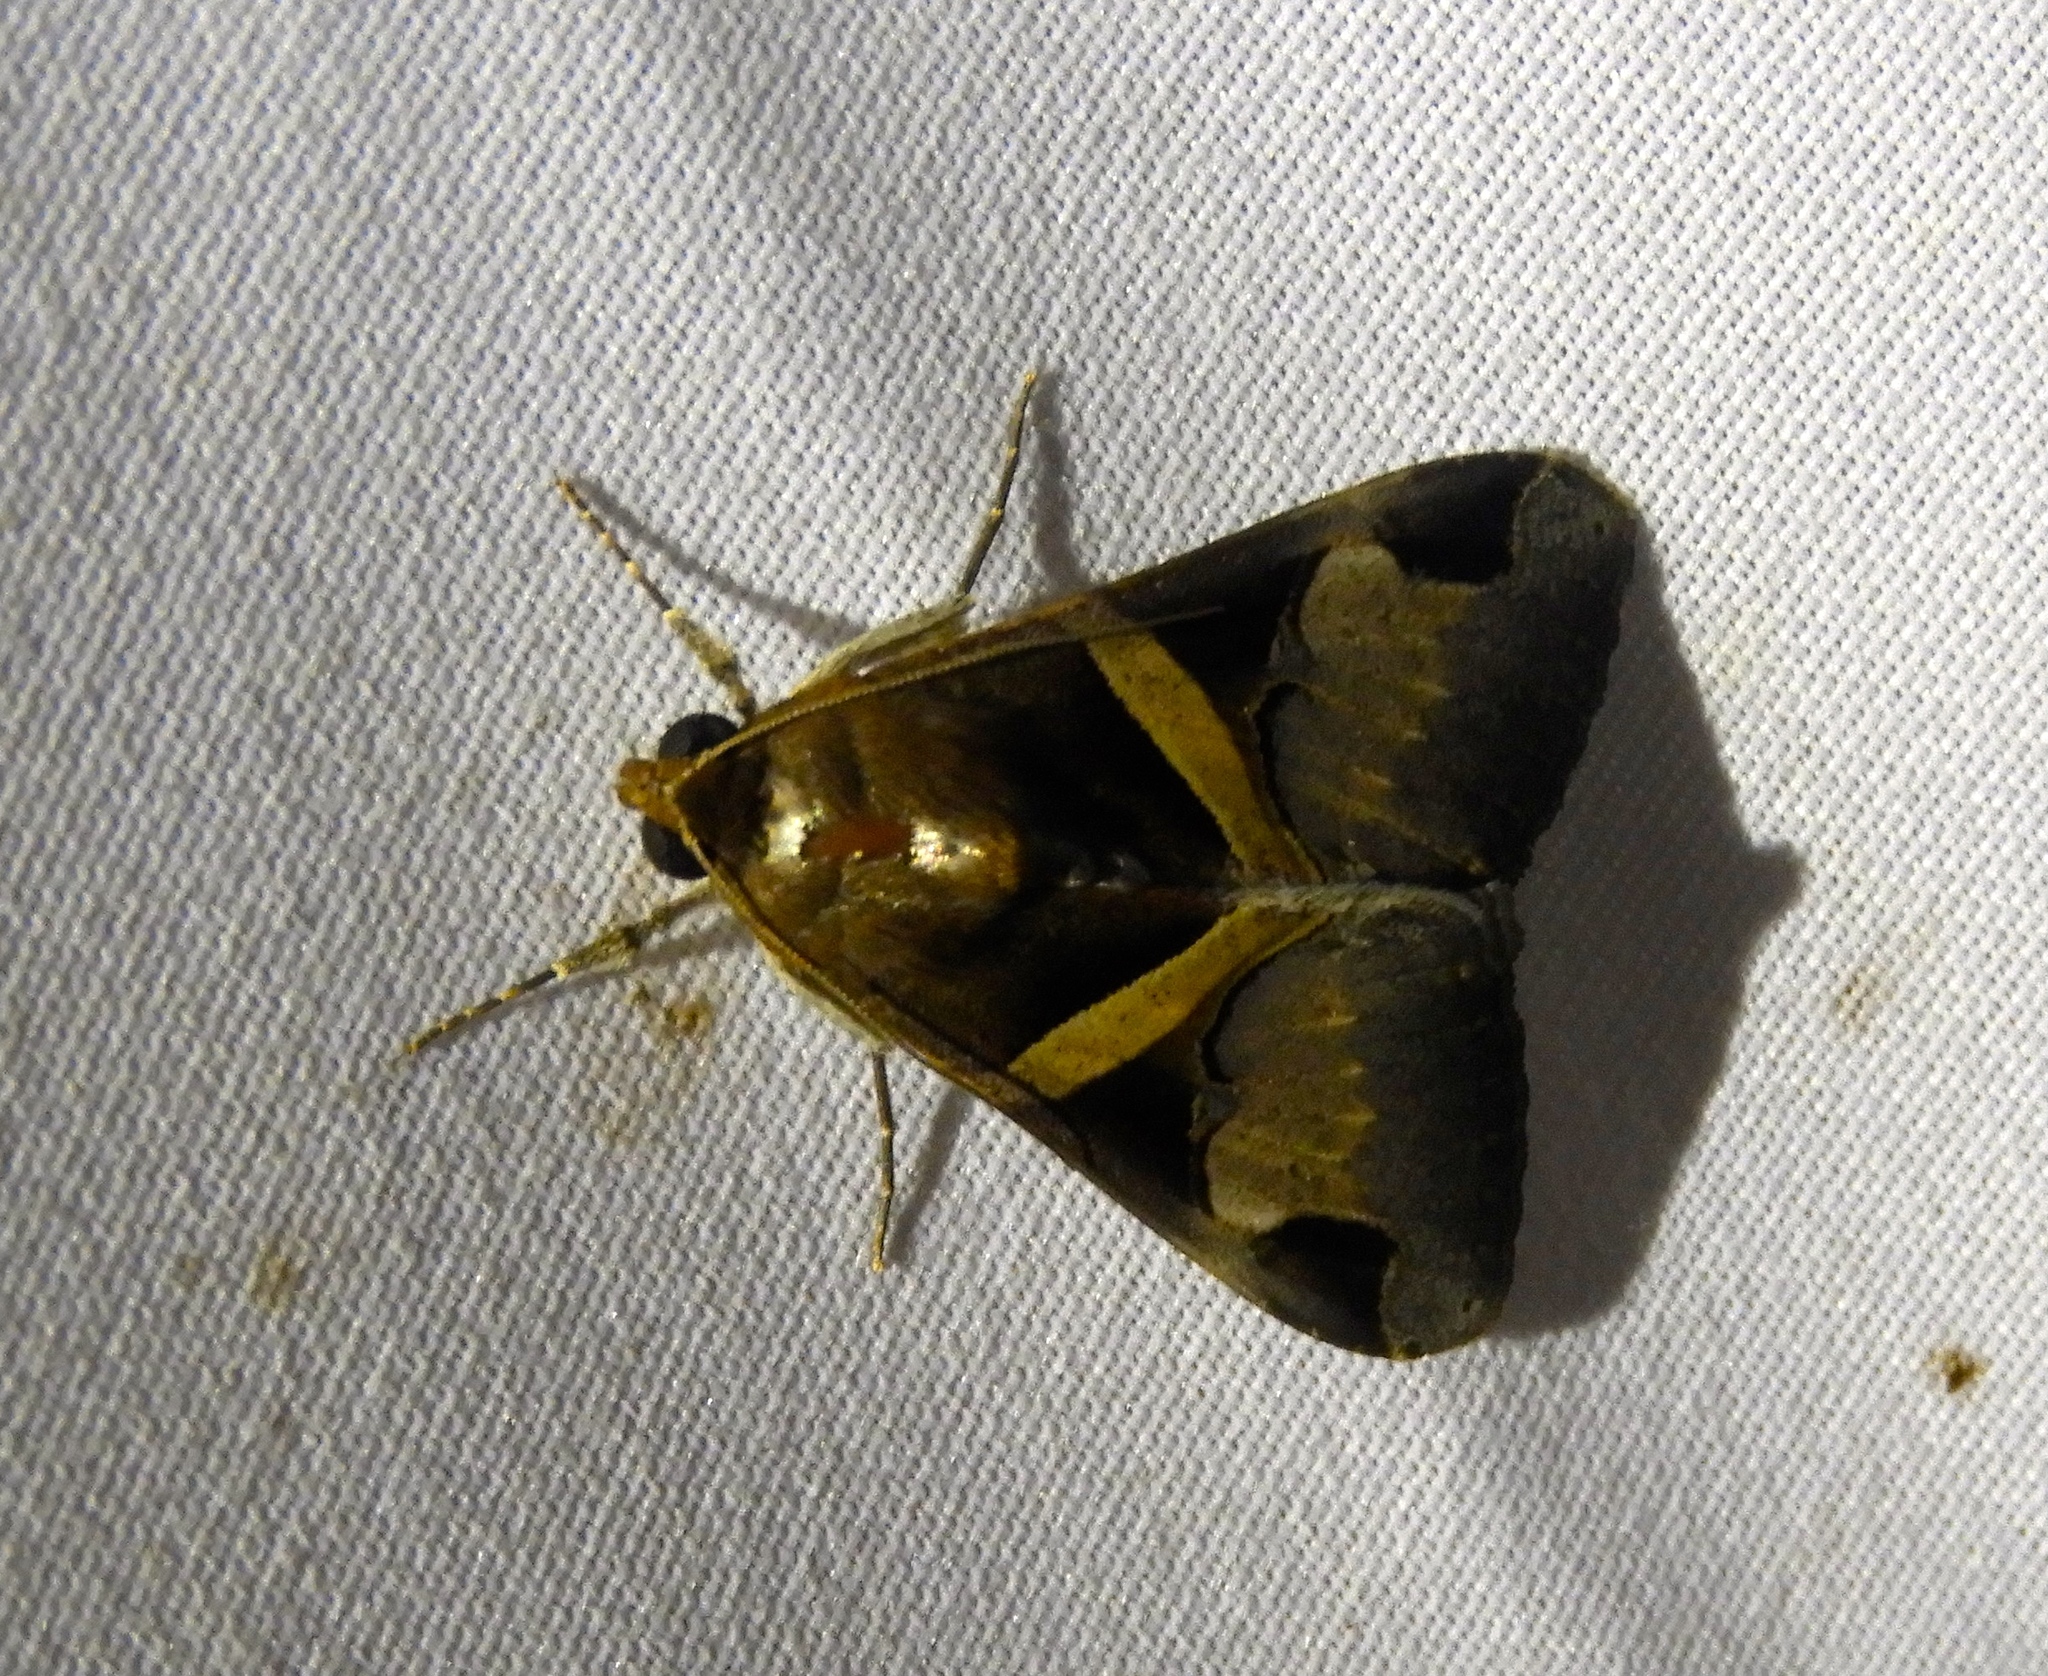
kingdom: Animalia
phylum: Arthropoda
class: Insecta
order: Lepidoptera
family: Erebidae
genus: Melipotis
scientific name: Melipotis fasciolaris
